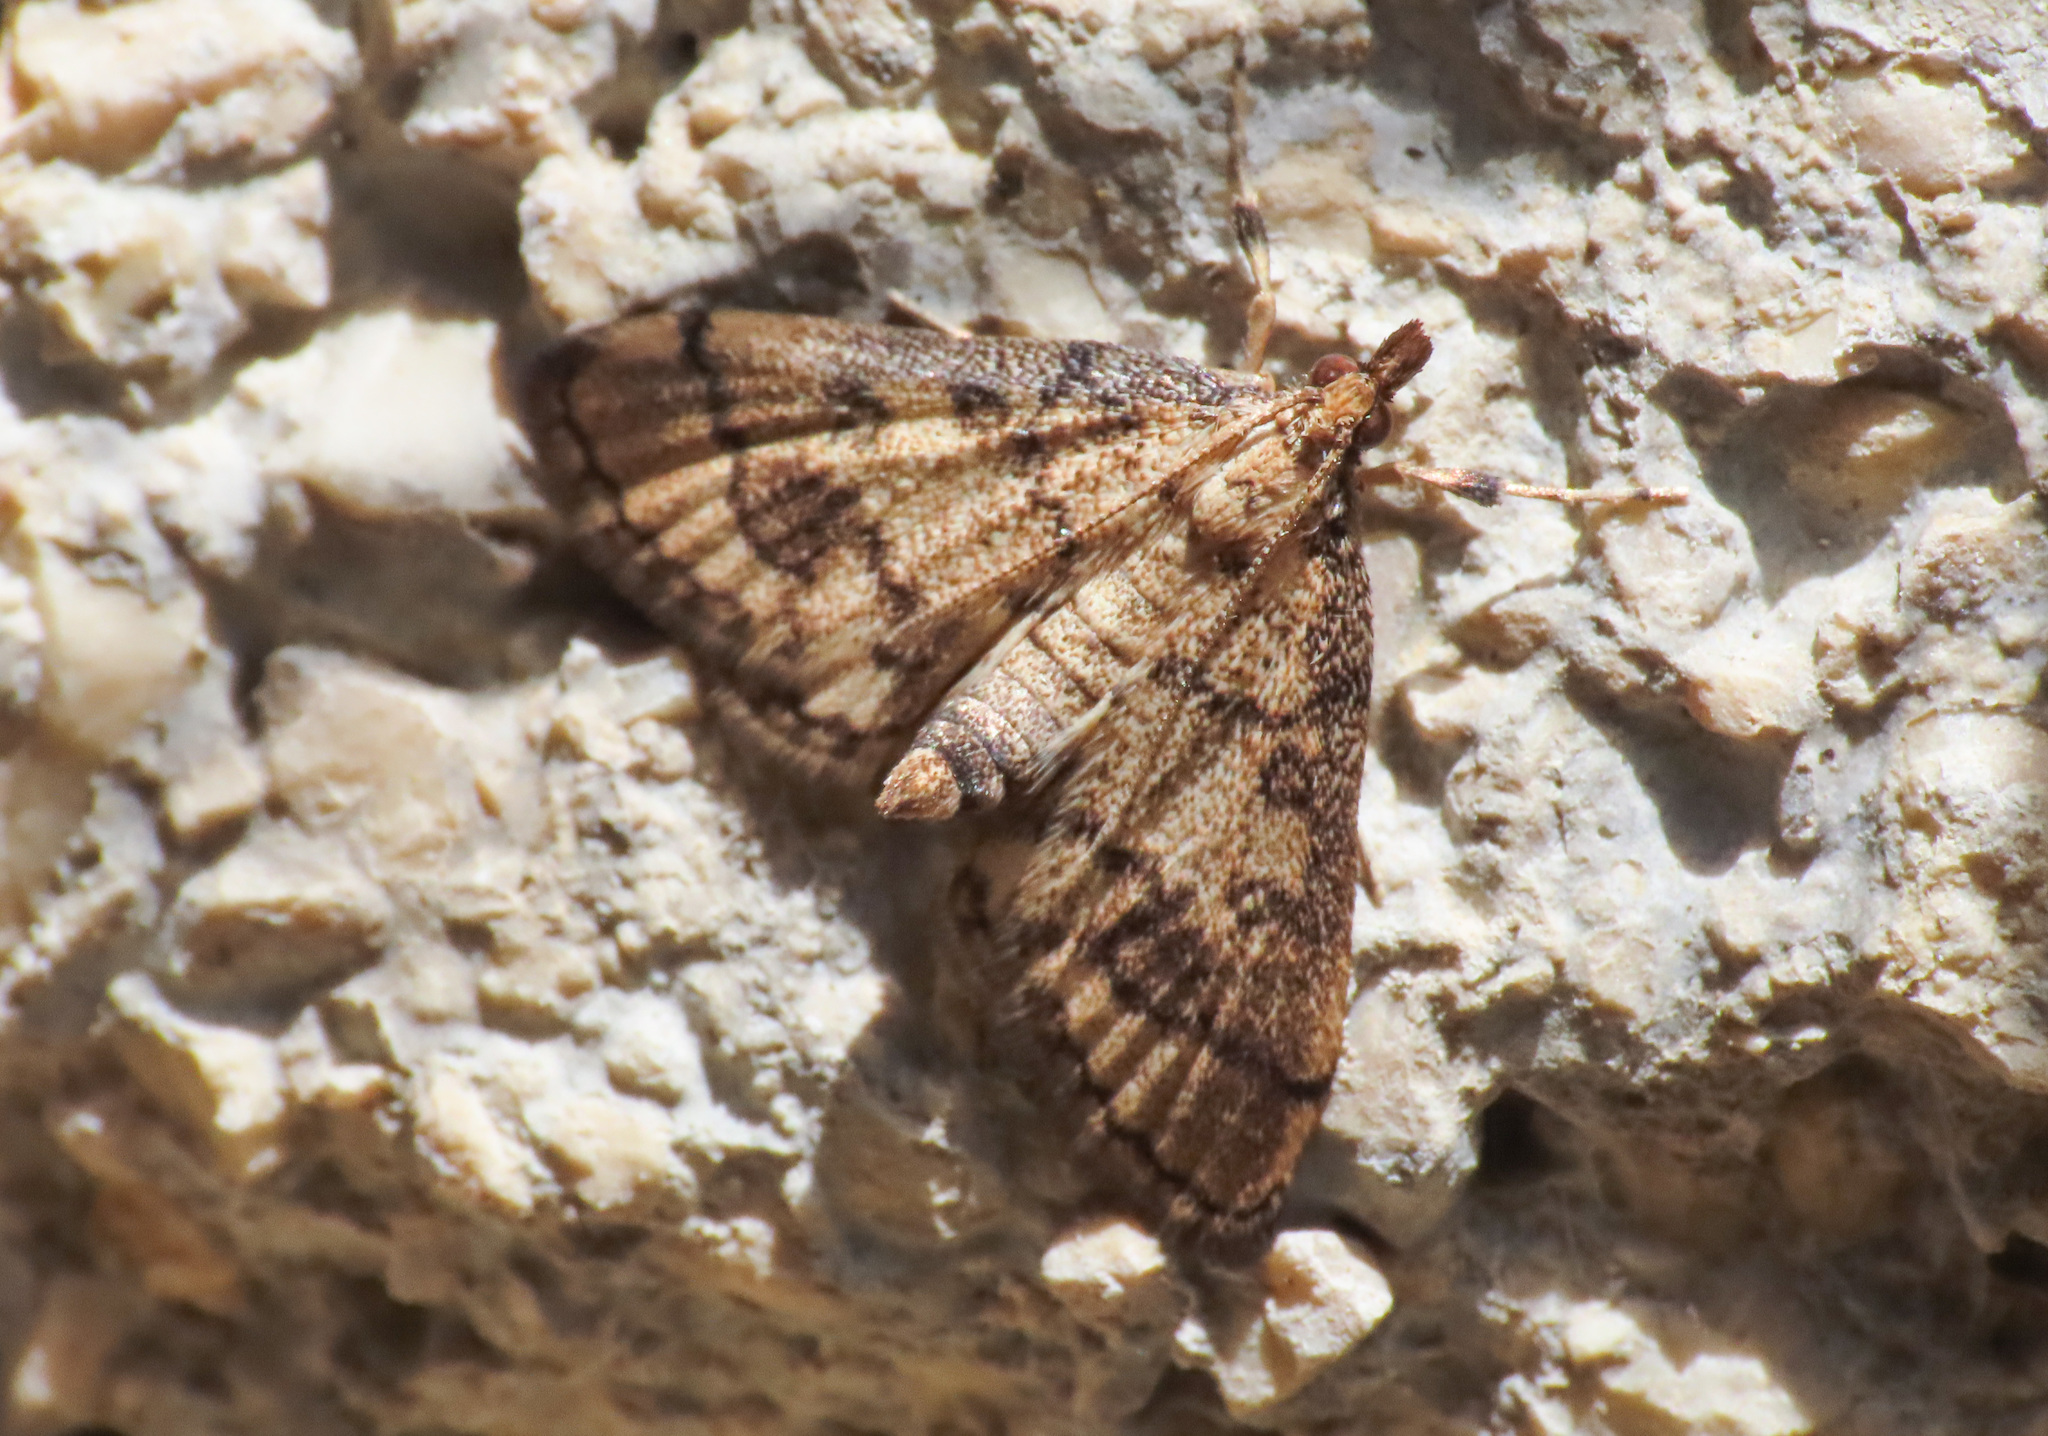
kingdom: Animalia
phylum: Arthropoda
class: Insecta
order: Lepidoptera
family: Crambidae
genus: Metasia
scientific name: Metasia ophialis
